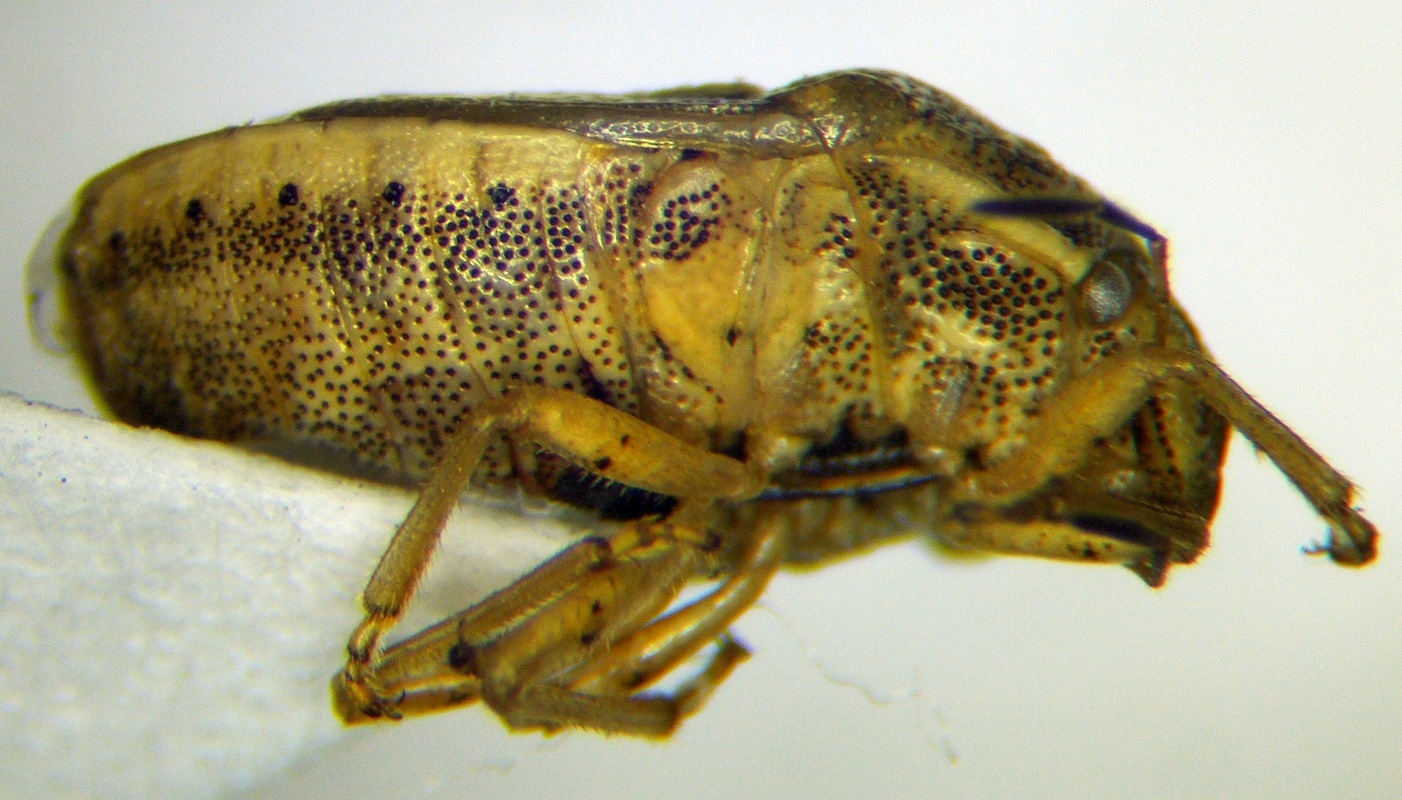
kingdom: Animalia
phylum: Arthropoda
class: Insecta
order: Hemiptera
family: Pentatomidae
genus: Neottiglossa
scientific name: Neottiglossa leporina
